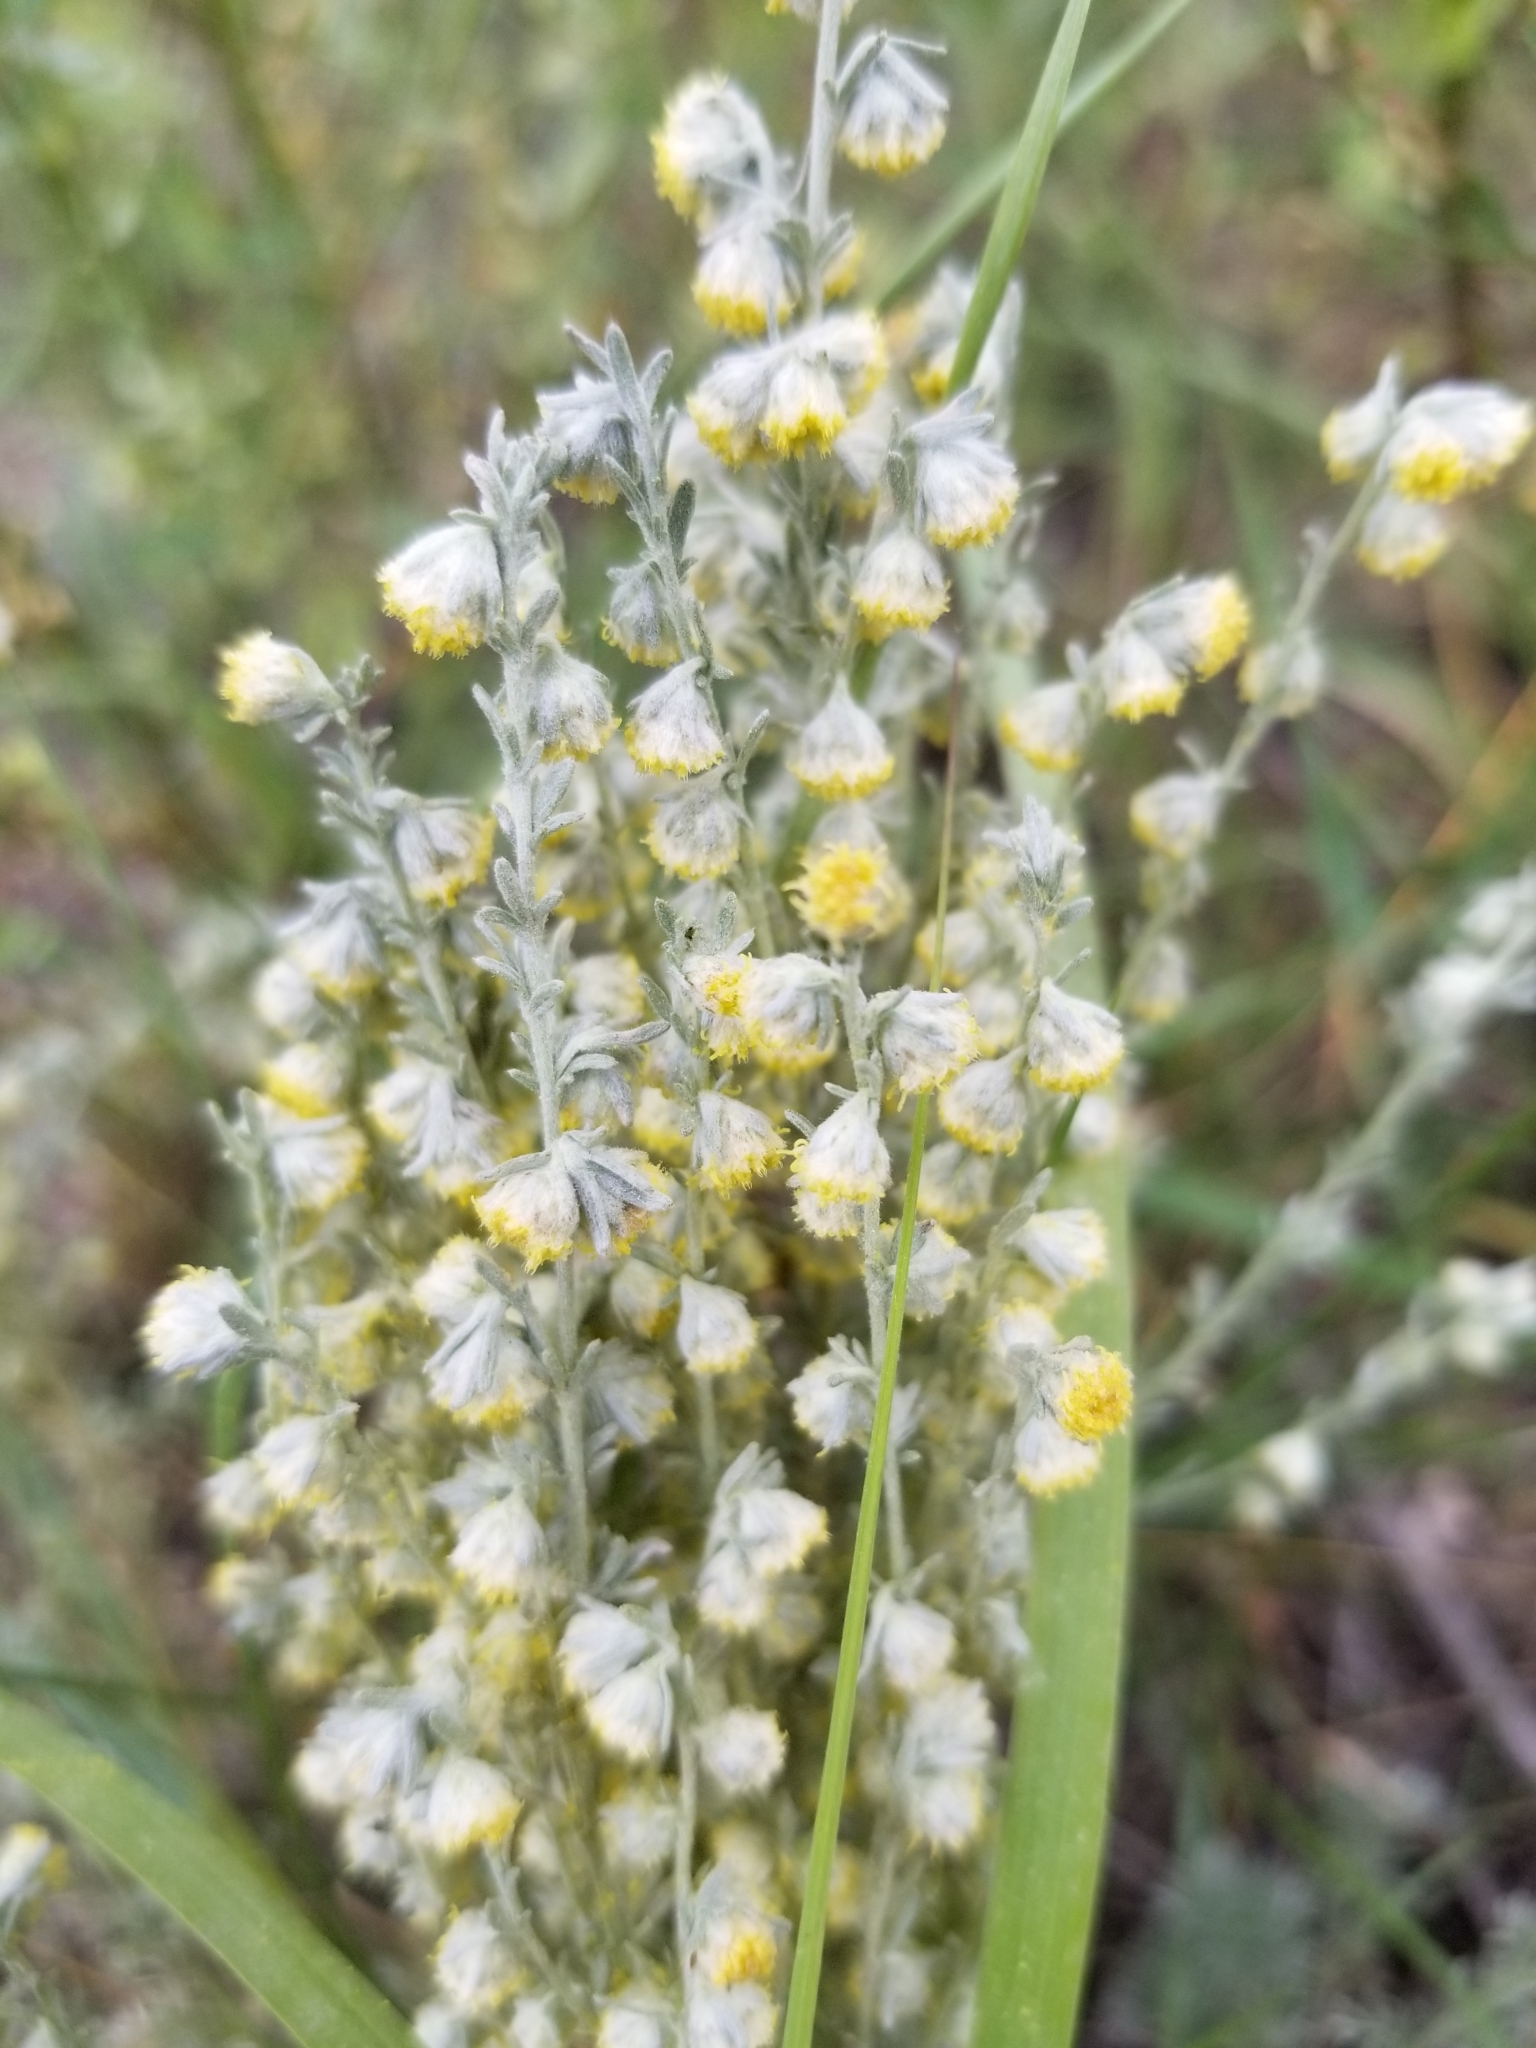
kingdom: Plantae
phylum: Tracheophyta
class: Magnoliopsida
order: Asterales
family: Asteraceae
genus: Artemisia
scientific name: Artemisia frigida
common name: Prairie sagewort
